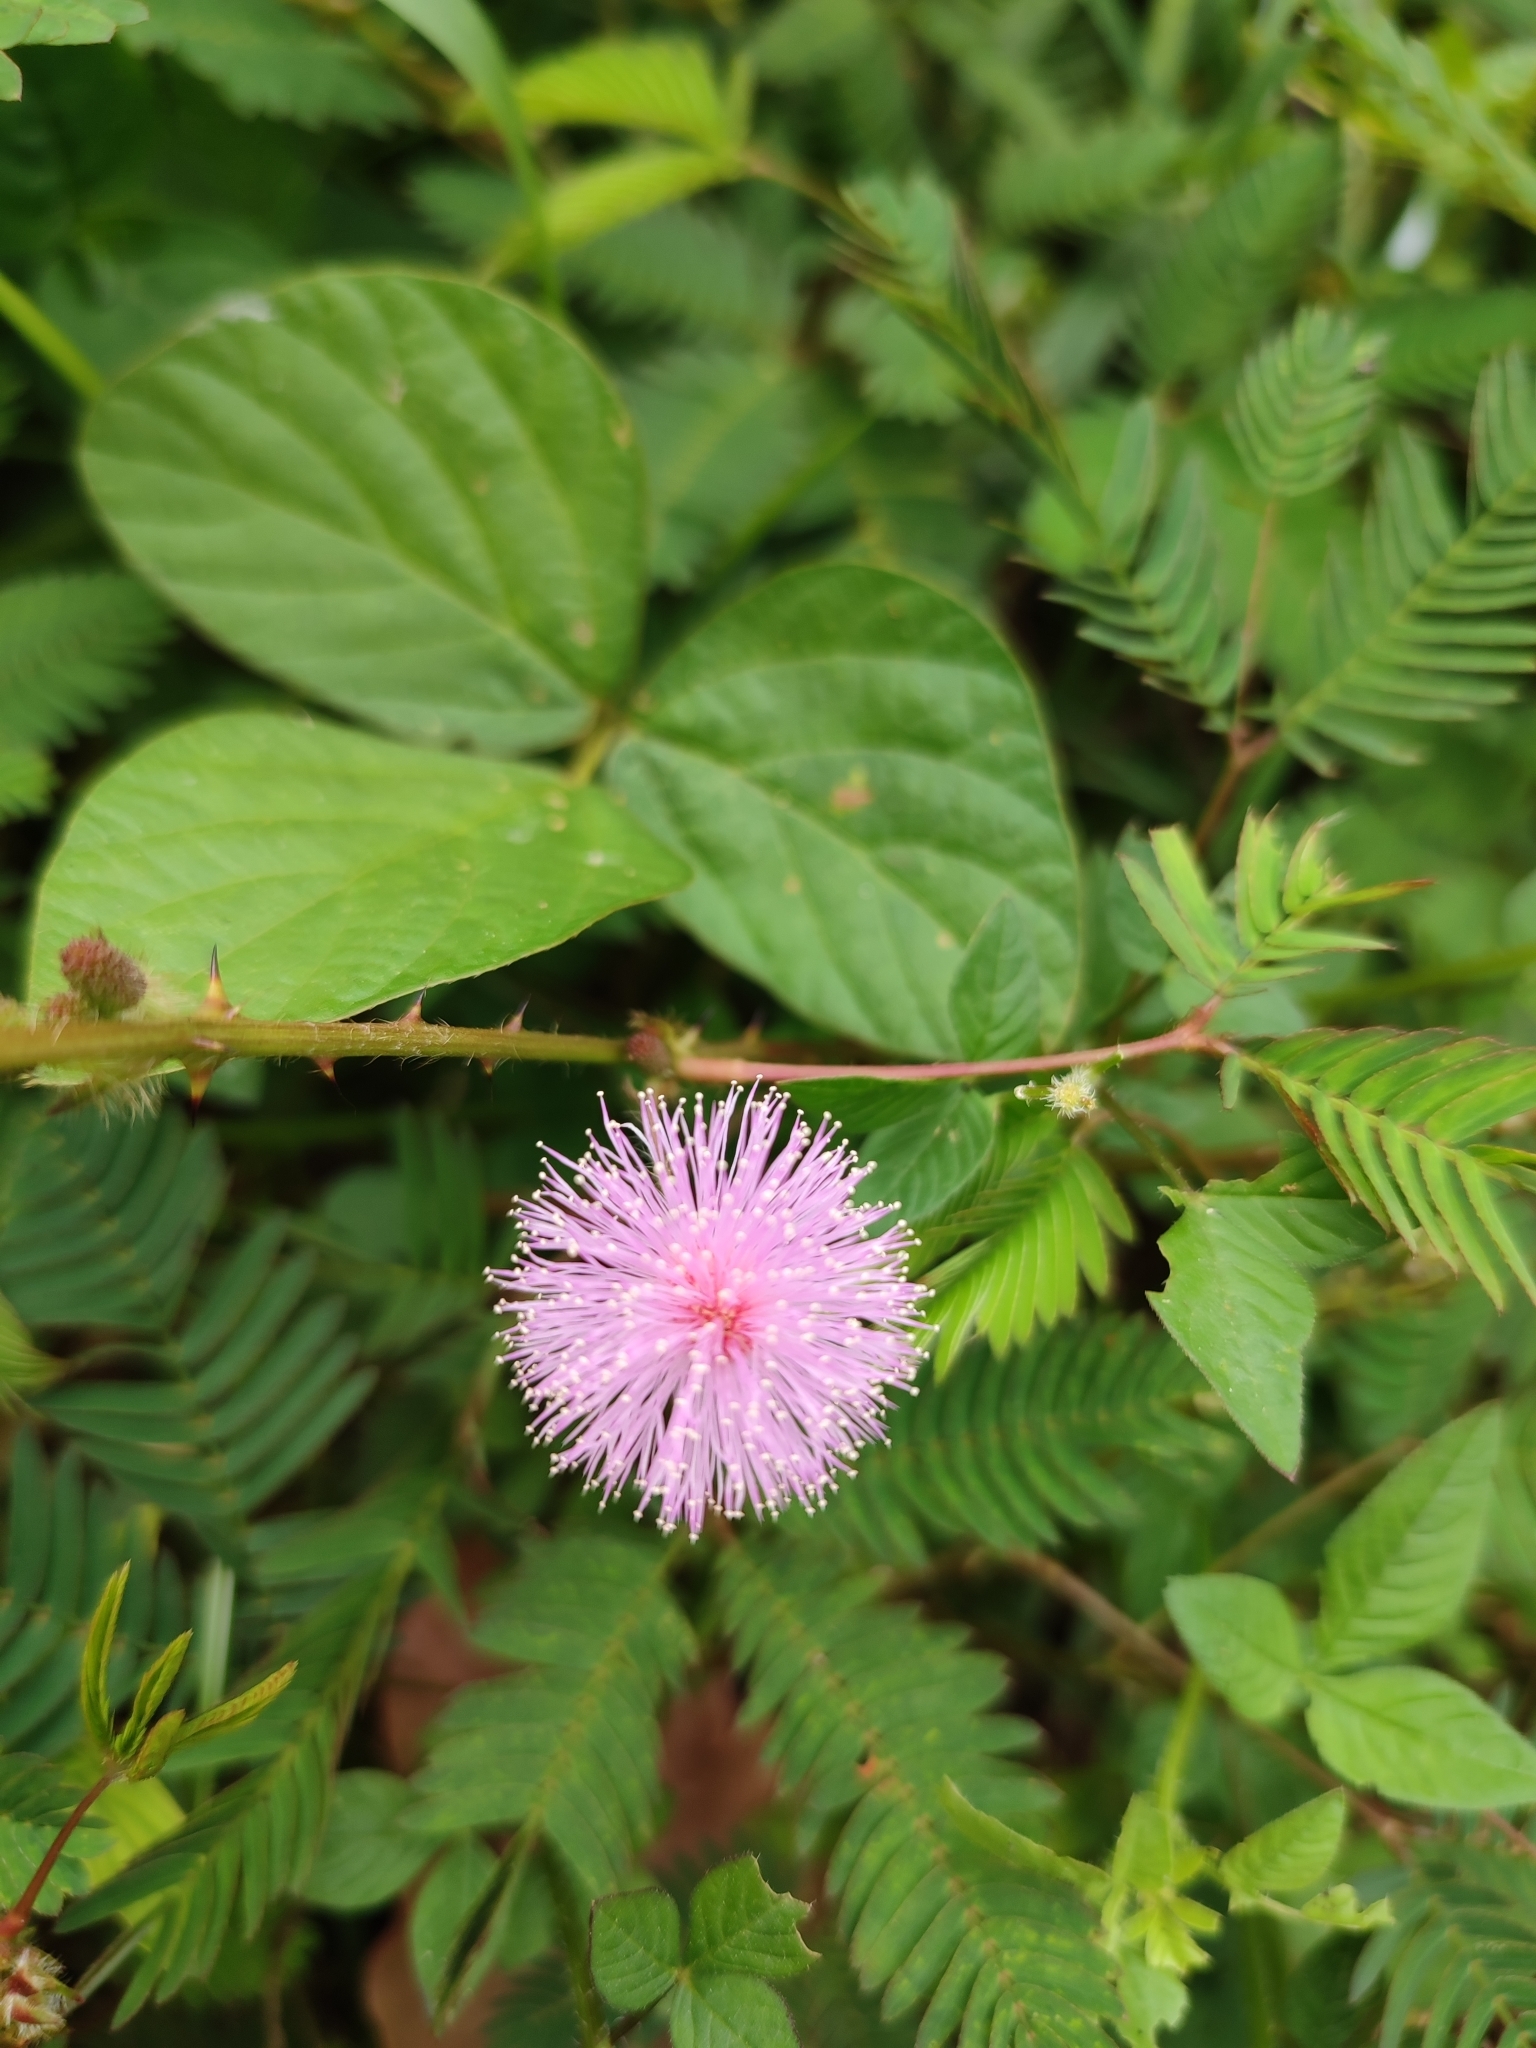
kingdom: Plantae
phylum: Tracheophyta
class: Magnoliopsida
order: Fabales
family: Fabaceae
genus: Mimosa
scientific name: Mimosa pudica
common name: Sensitive plant
